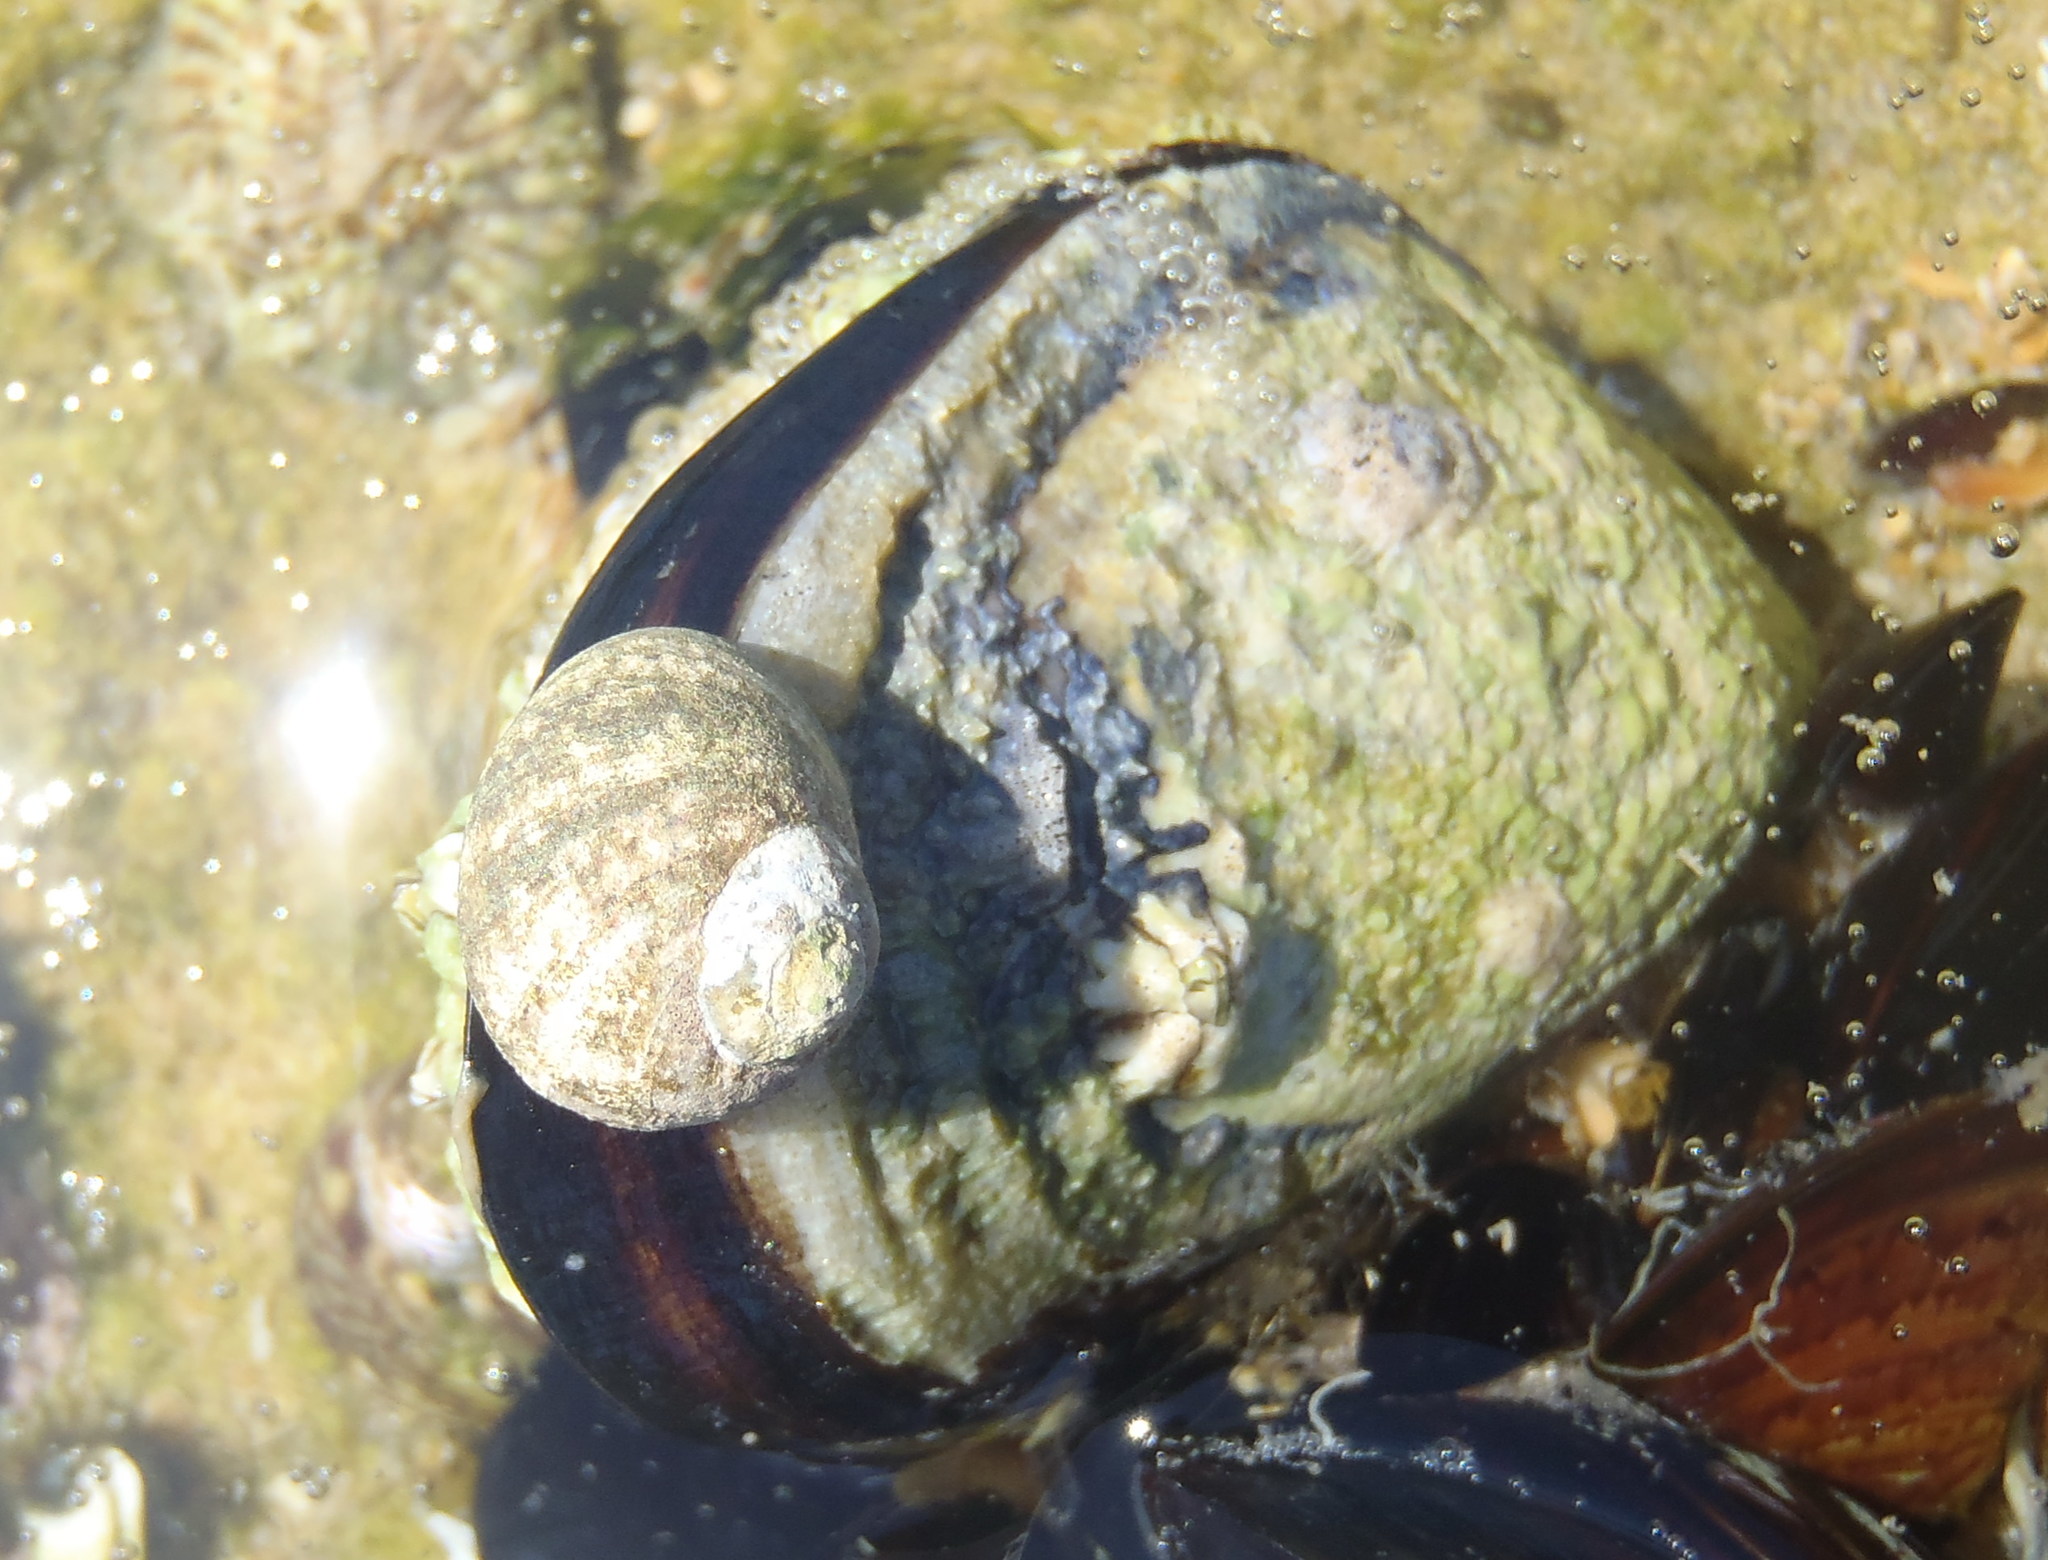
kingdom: Animalia
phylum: Mollusca
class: Gastropoda
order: Trochida
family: Turbinidae
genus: Turbo
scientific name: Turbo cidaris
